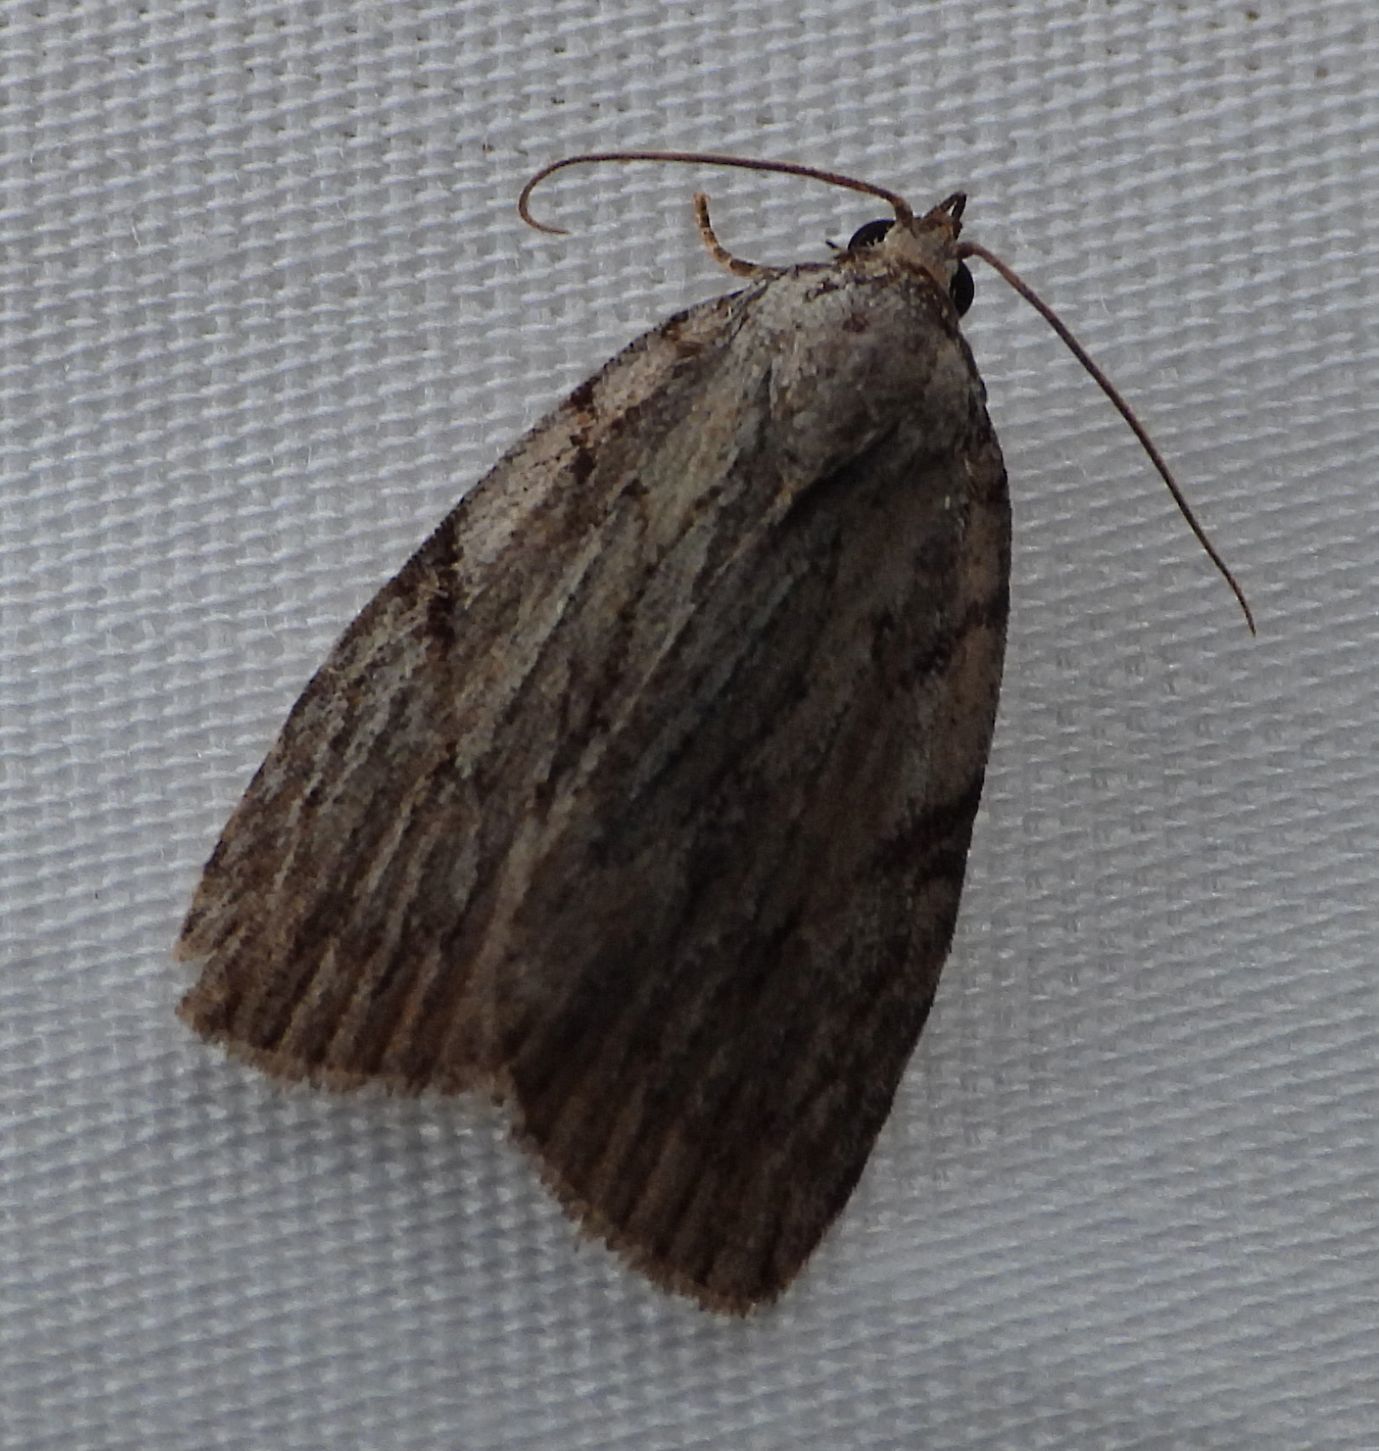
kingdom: Animalia
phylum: Arthropoda
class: Insecta
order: Lepidoptera
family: Noctuidae
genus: Balsa
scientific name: Balsa tristrigella
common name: Three-lined balsa moth
